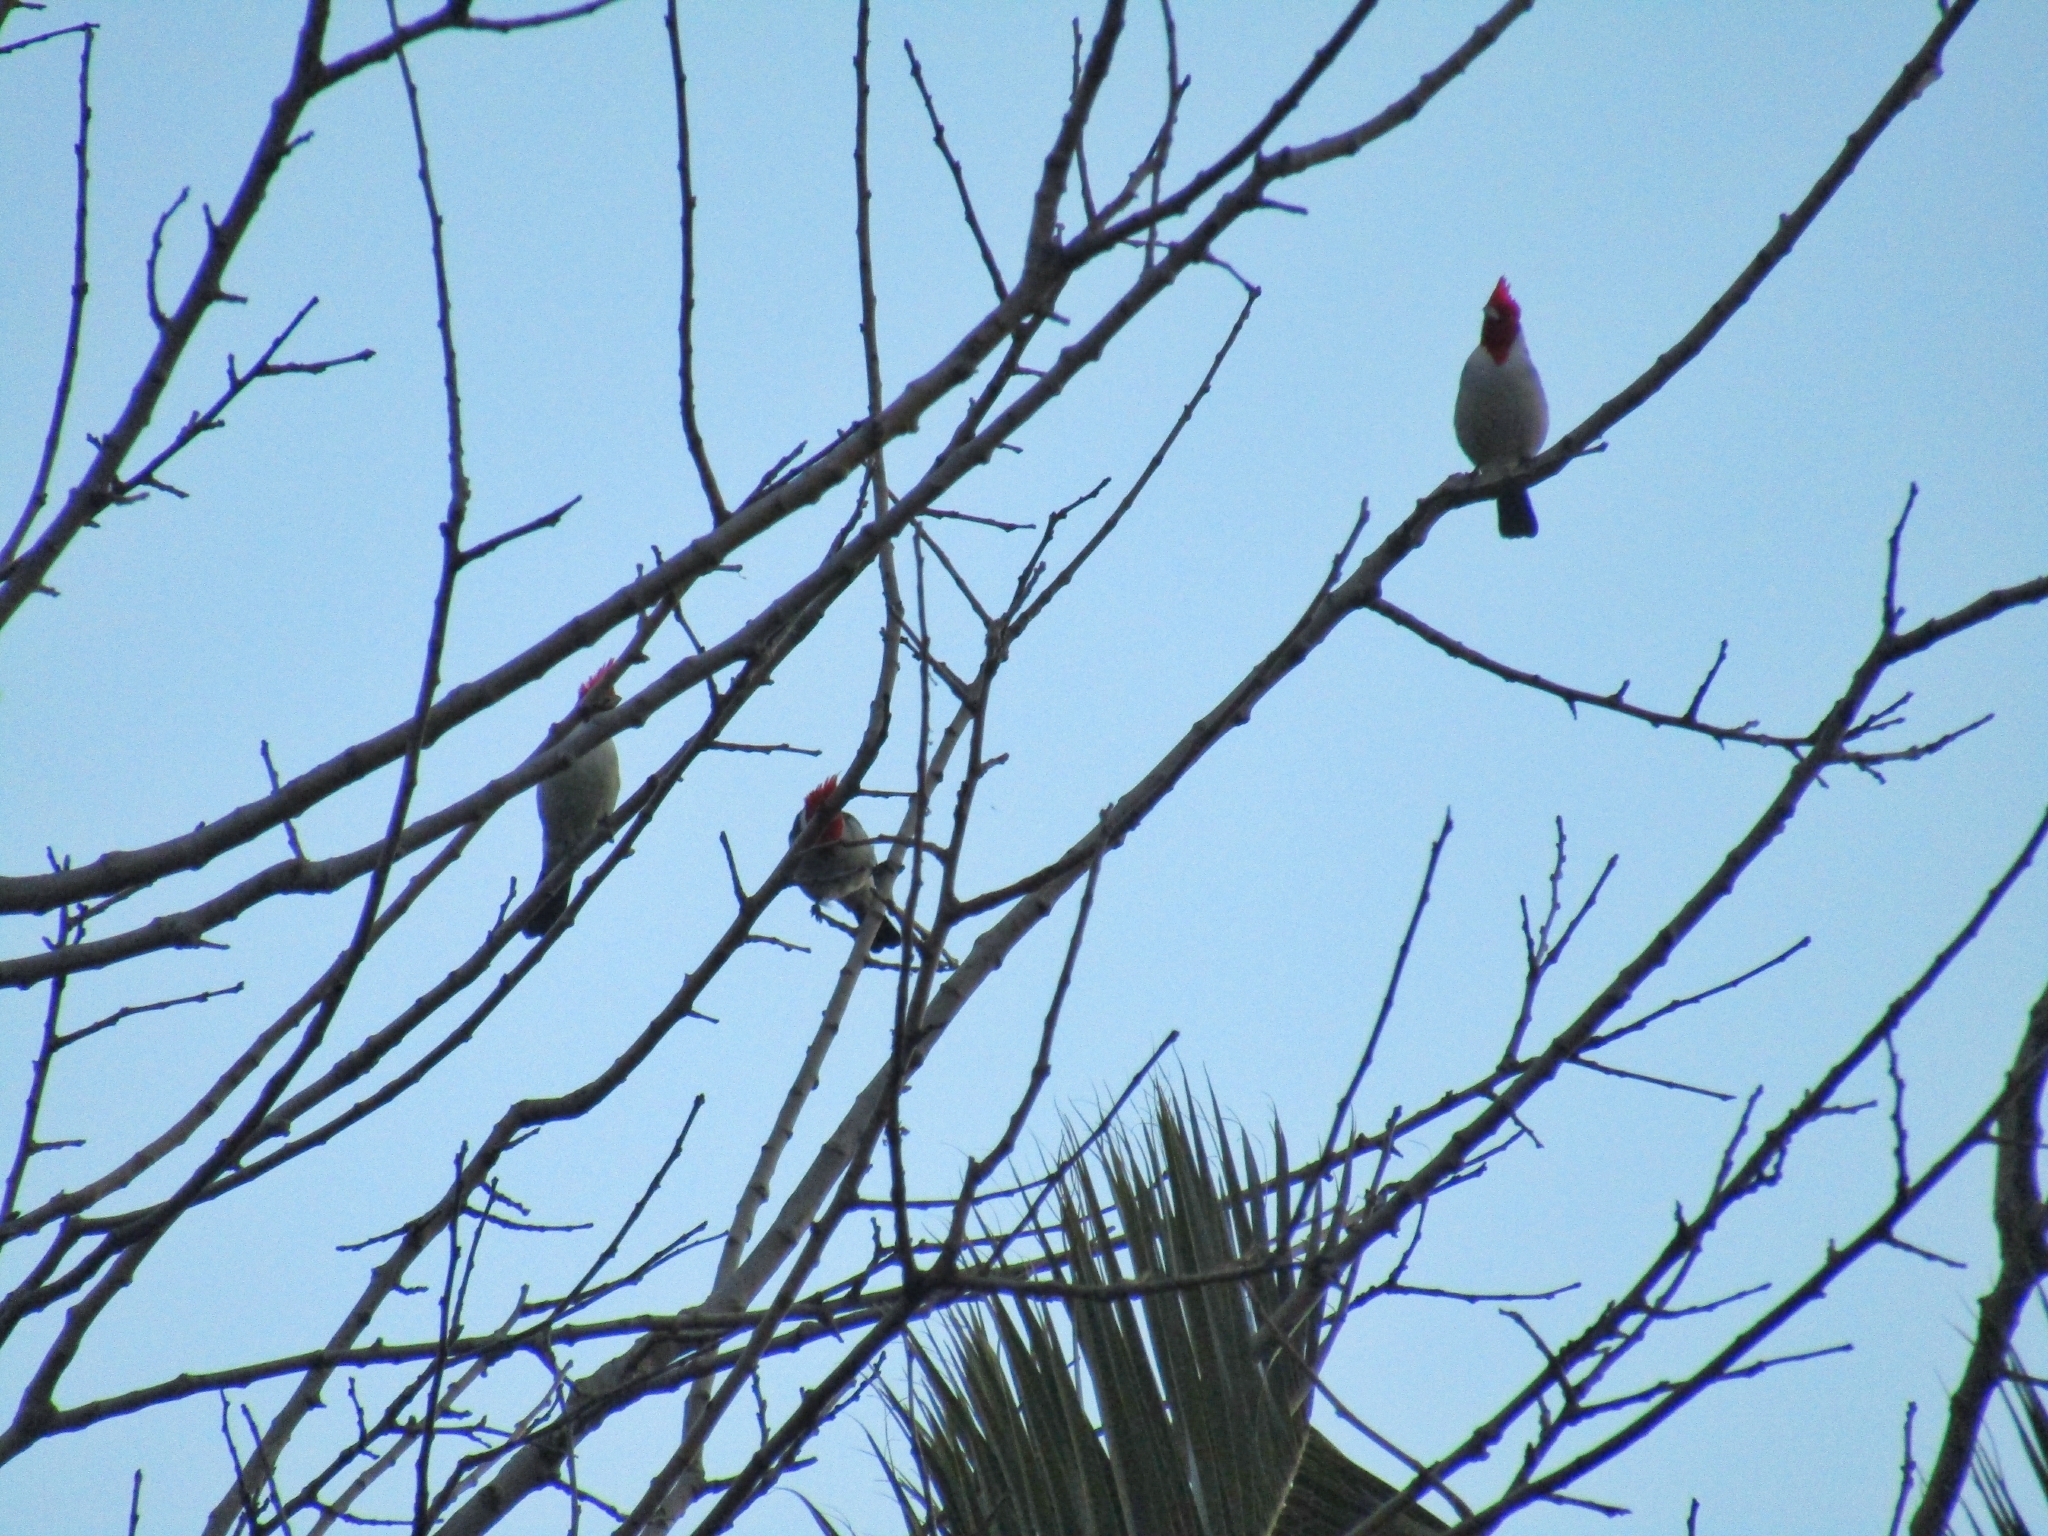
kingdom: Animalia
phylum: Chordata
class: Aves
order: Passeriformes
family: Thraupidae
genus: Paroaria
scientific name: Paroaria coronata
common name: Red-crested cardinal
